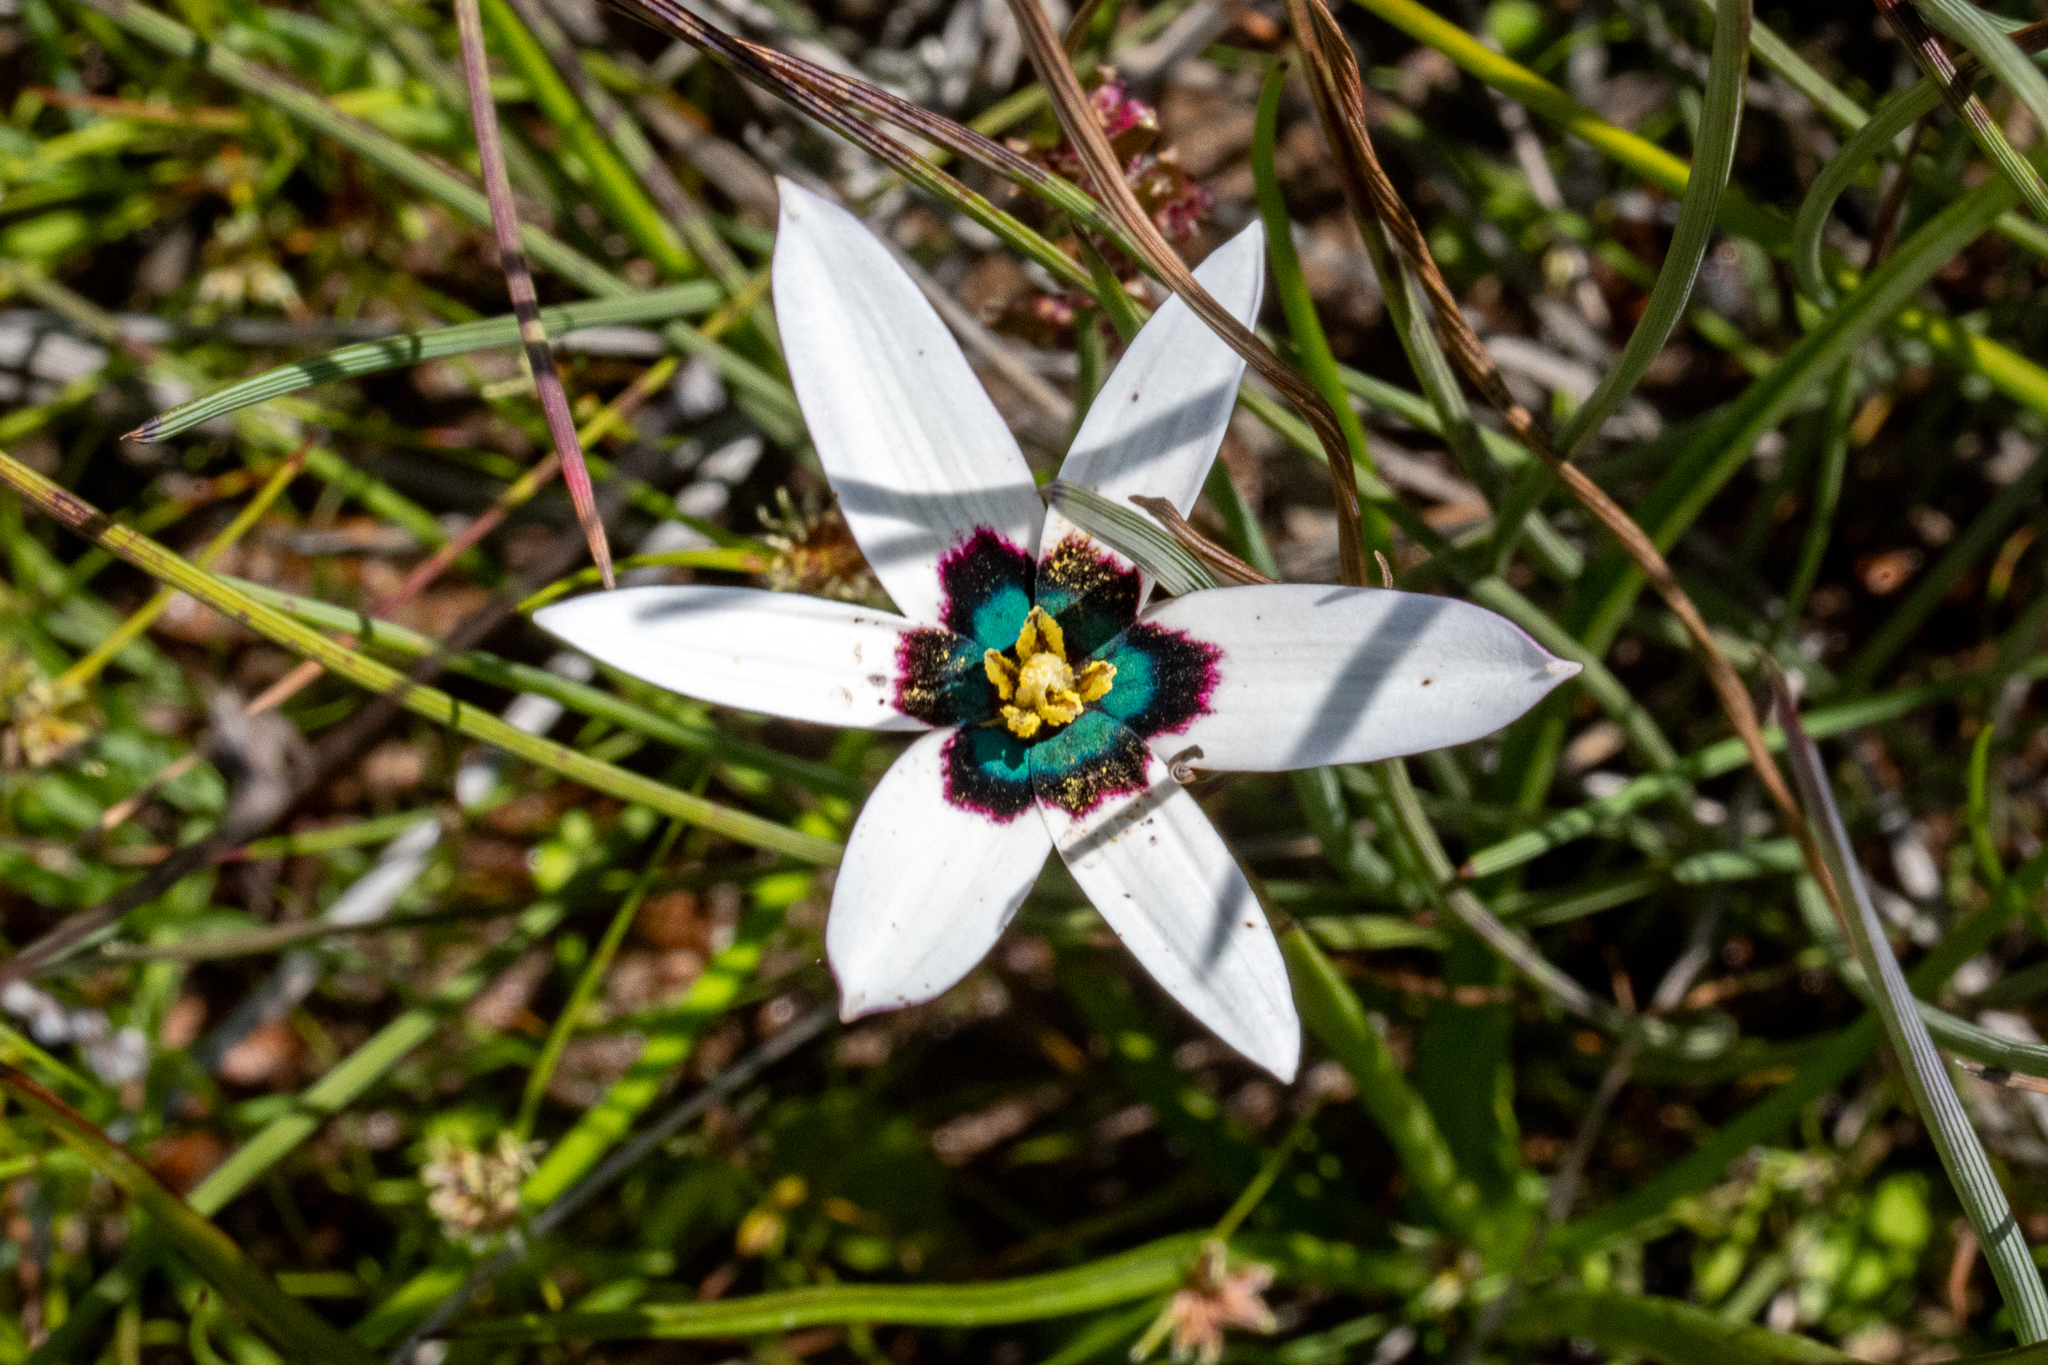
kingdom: Plantae
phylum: Tracheophyta
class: Liliopsida
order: Asparagales
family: Hypoxidaceae
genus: Pauridia
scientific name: Pauridia capensis
